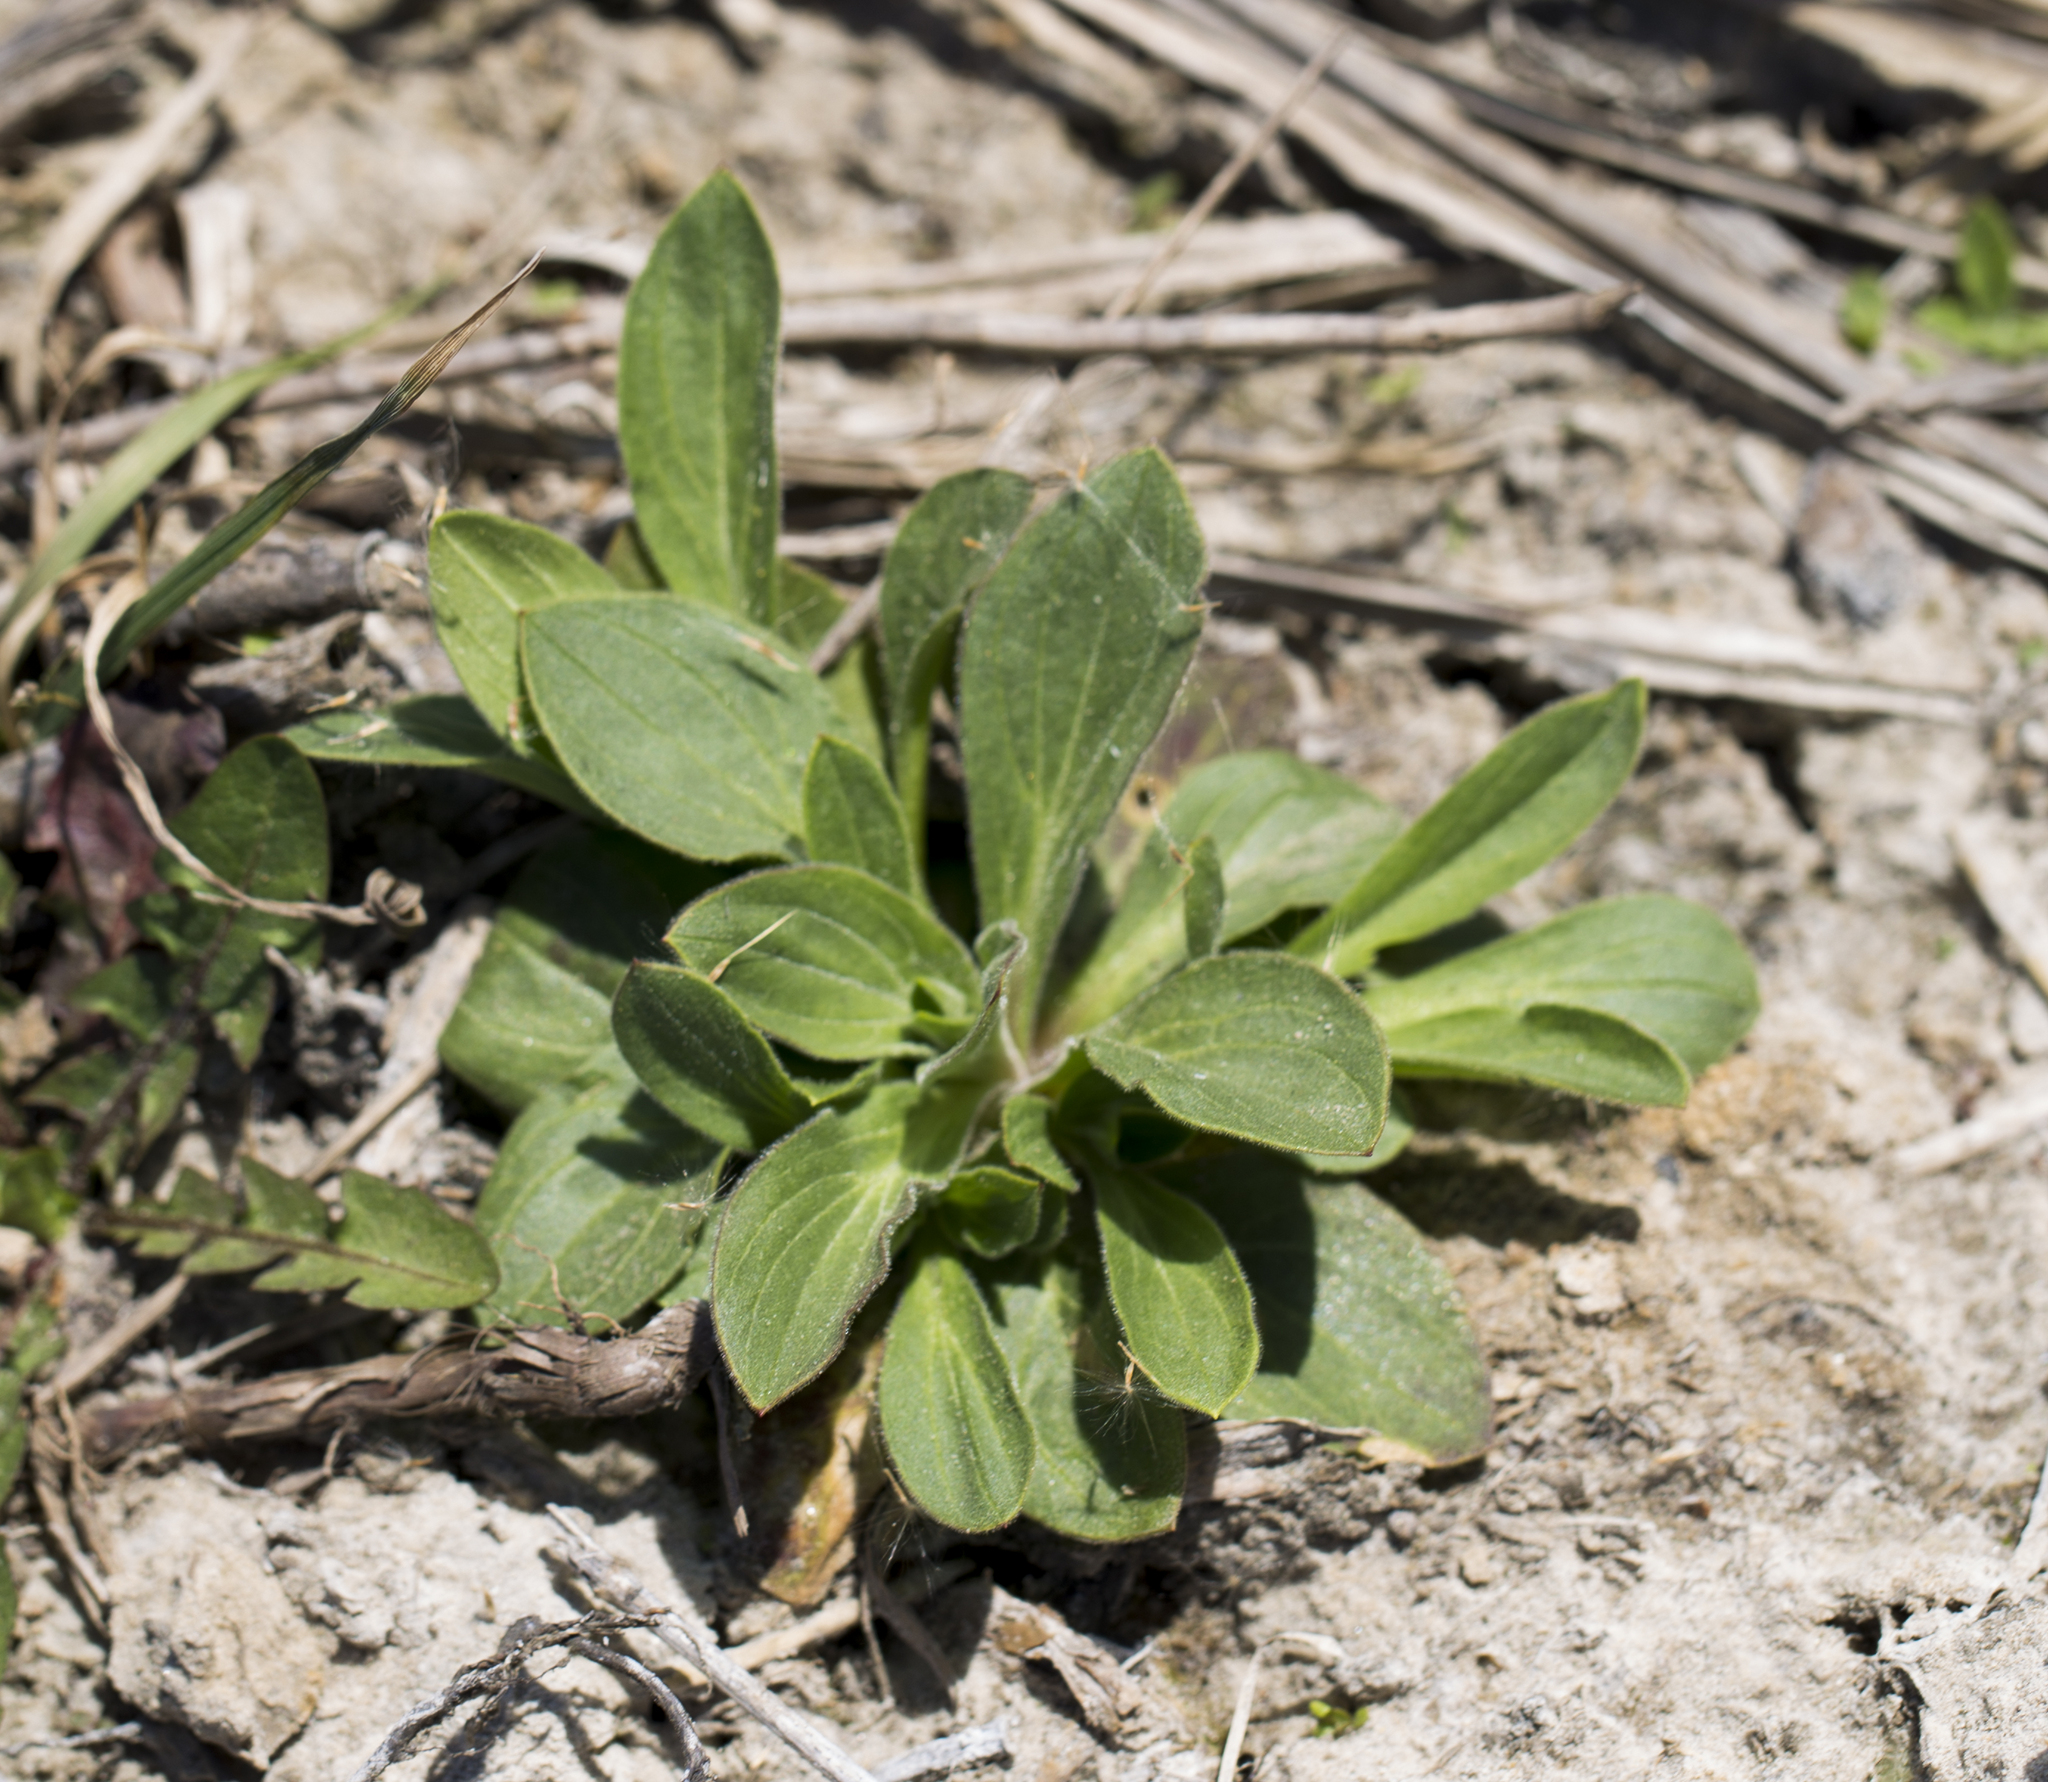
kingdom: Plantae
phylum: Tracheophyta
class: Magnoliopsida
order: Caryophyllales
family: Caryophyllaceae
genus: Silene
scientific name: Silene latifolia
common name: White campion
